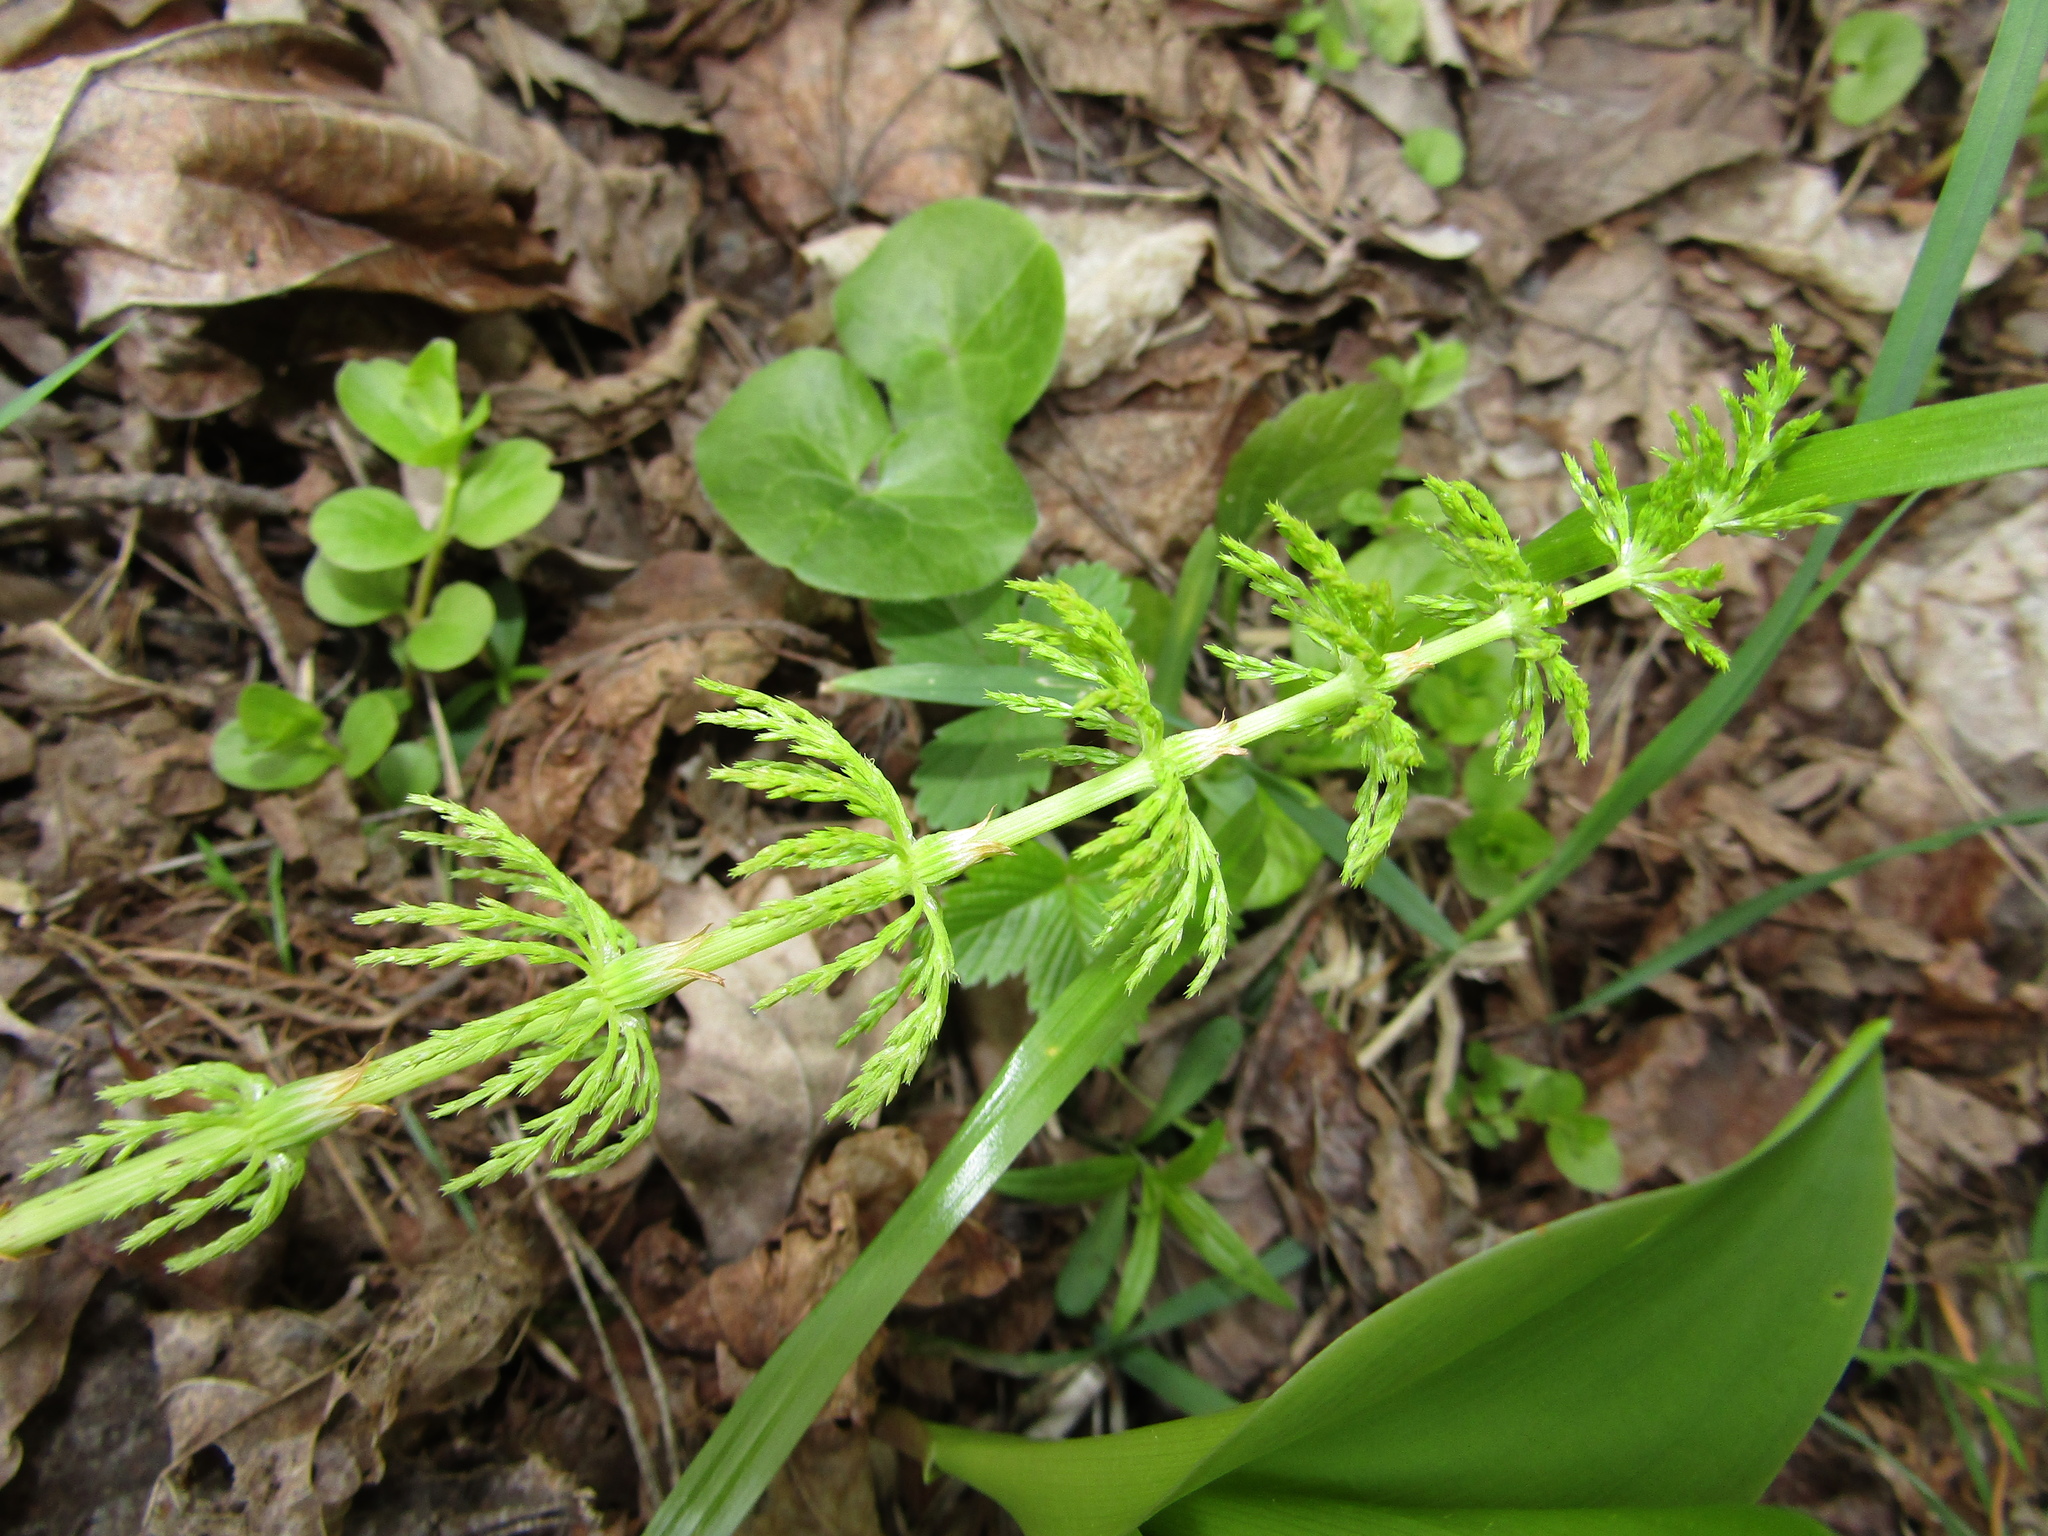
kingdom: Plantae
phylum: Tracheophyta
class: Polypodiopsida
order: Equisetales
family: Equisetaceae
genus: Equisetum
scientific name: Equisetum sylvaticum
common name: Wood horsetail
